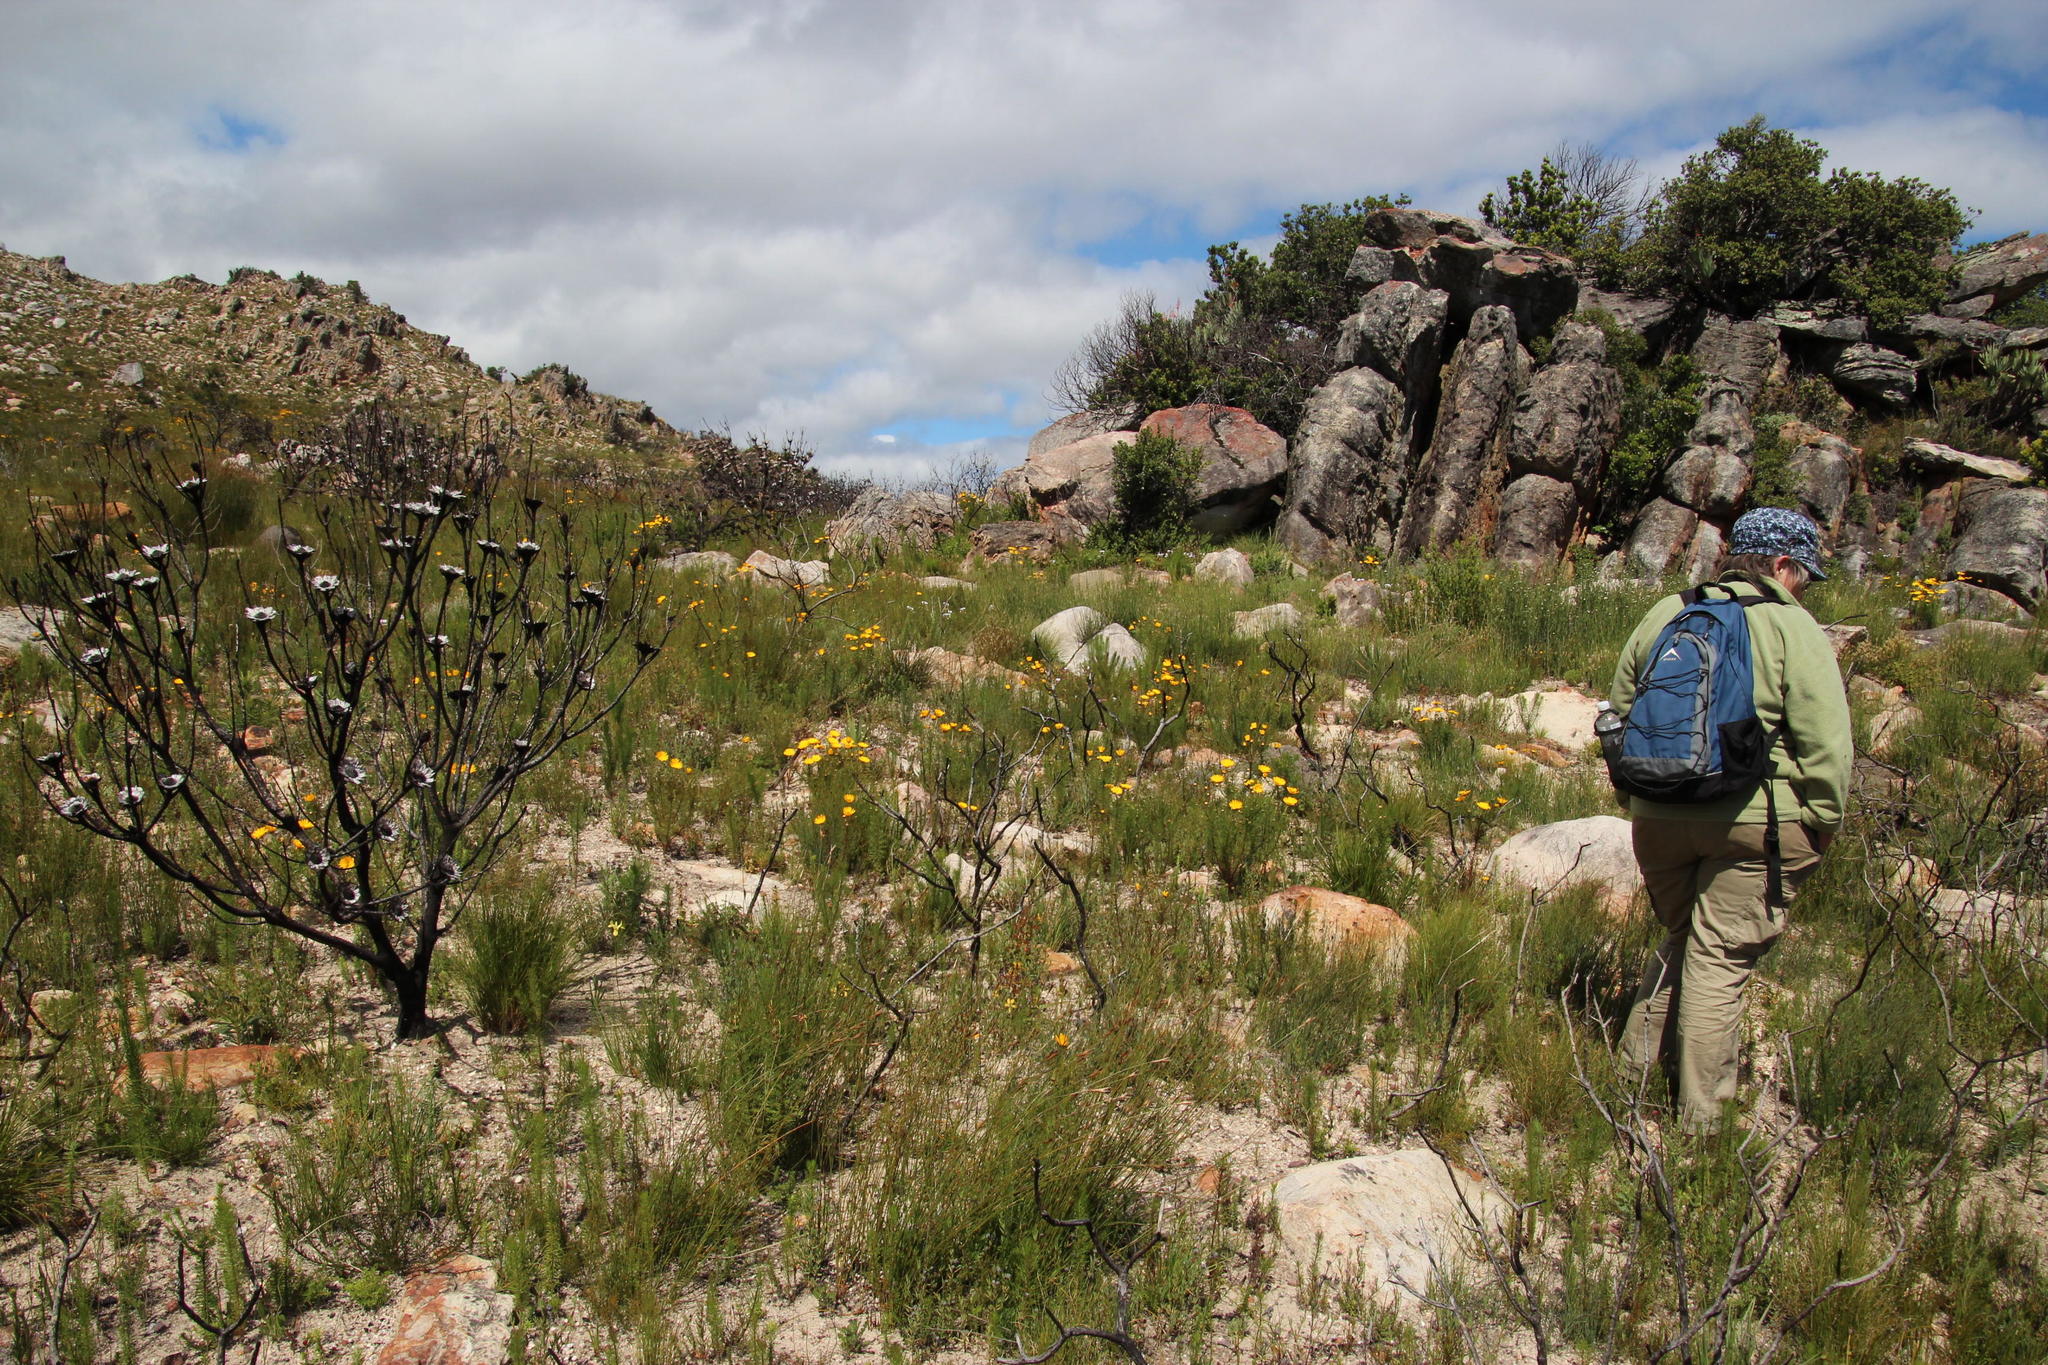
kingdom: Plantae
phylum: Tracheophyta
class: Magnoliopsida
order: Proteales
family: Proteaceae
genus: Protea
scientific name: Protea repens
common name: Sugarbush
